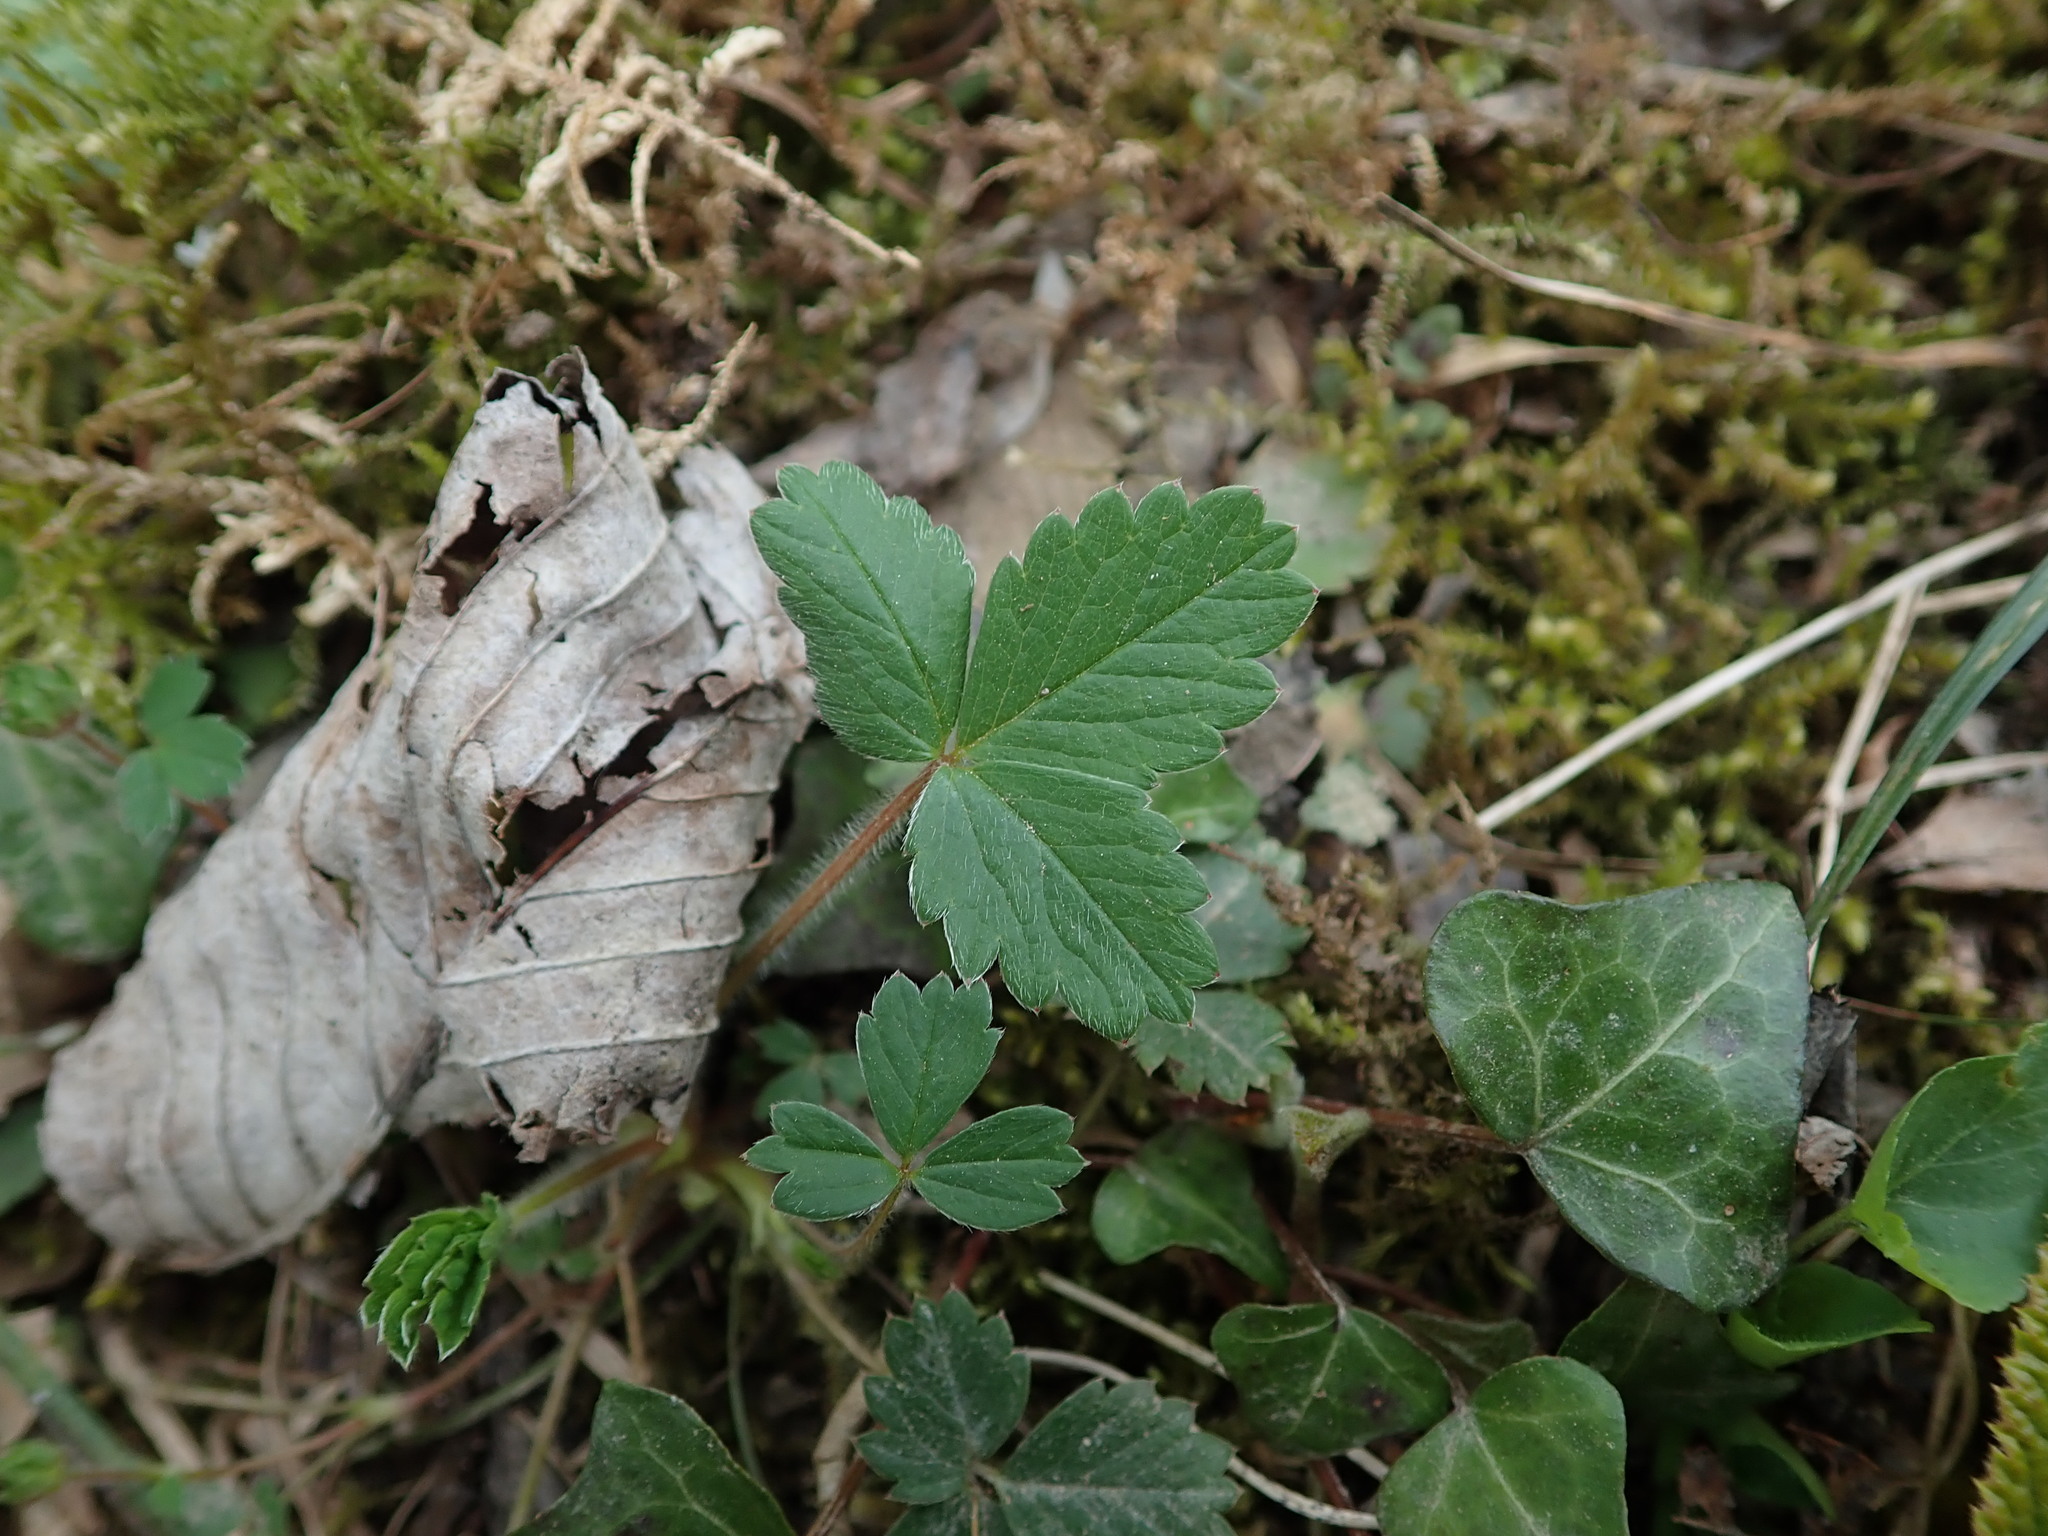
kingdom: Plantae
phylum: Tracheophyta
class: Magnoliopsida
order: Rosales
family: Rosaceae
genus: Potentilla
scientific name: Potentilla sterilis
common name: Barren strawberry
